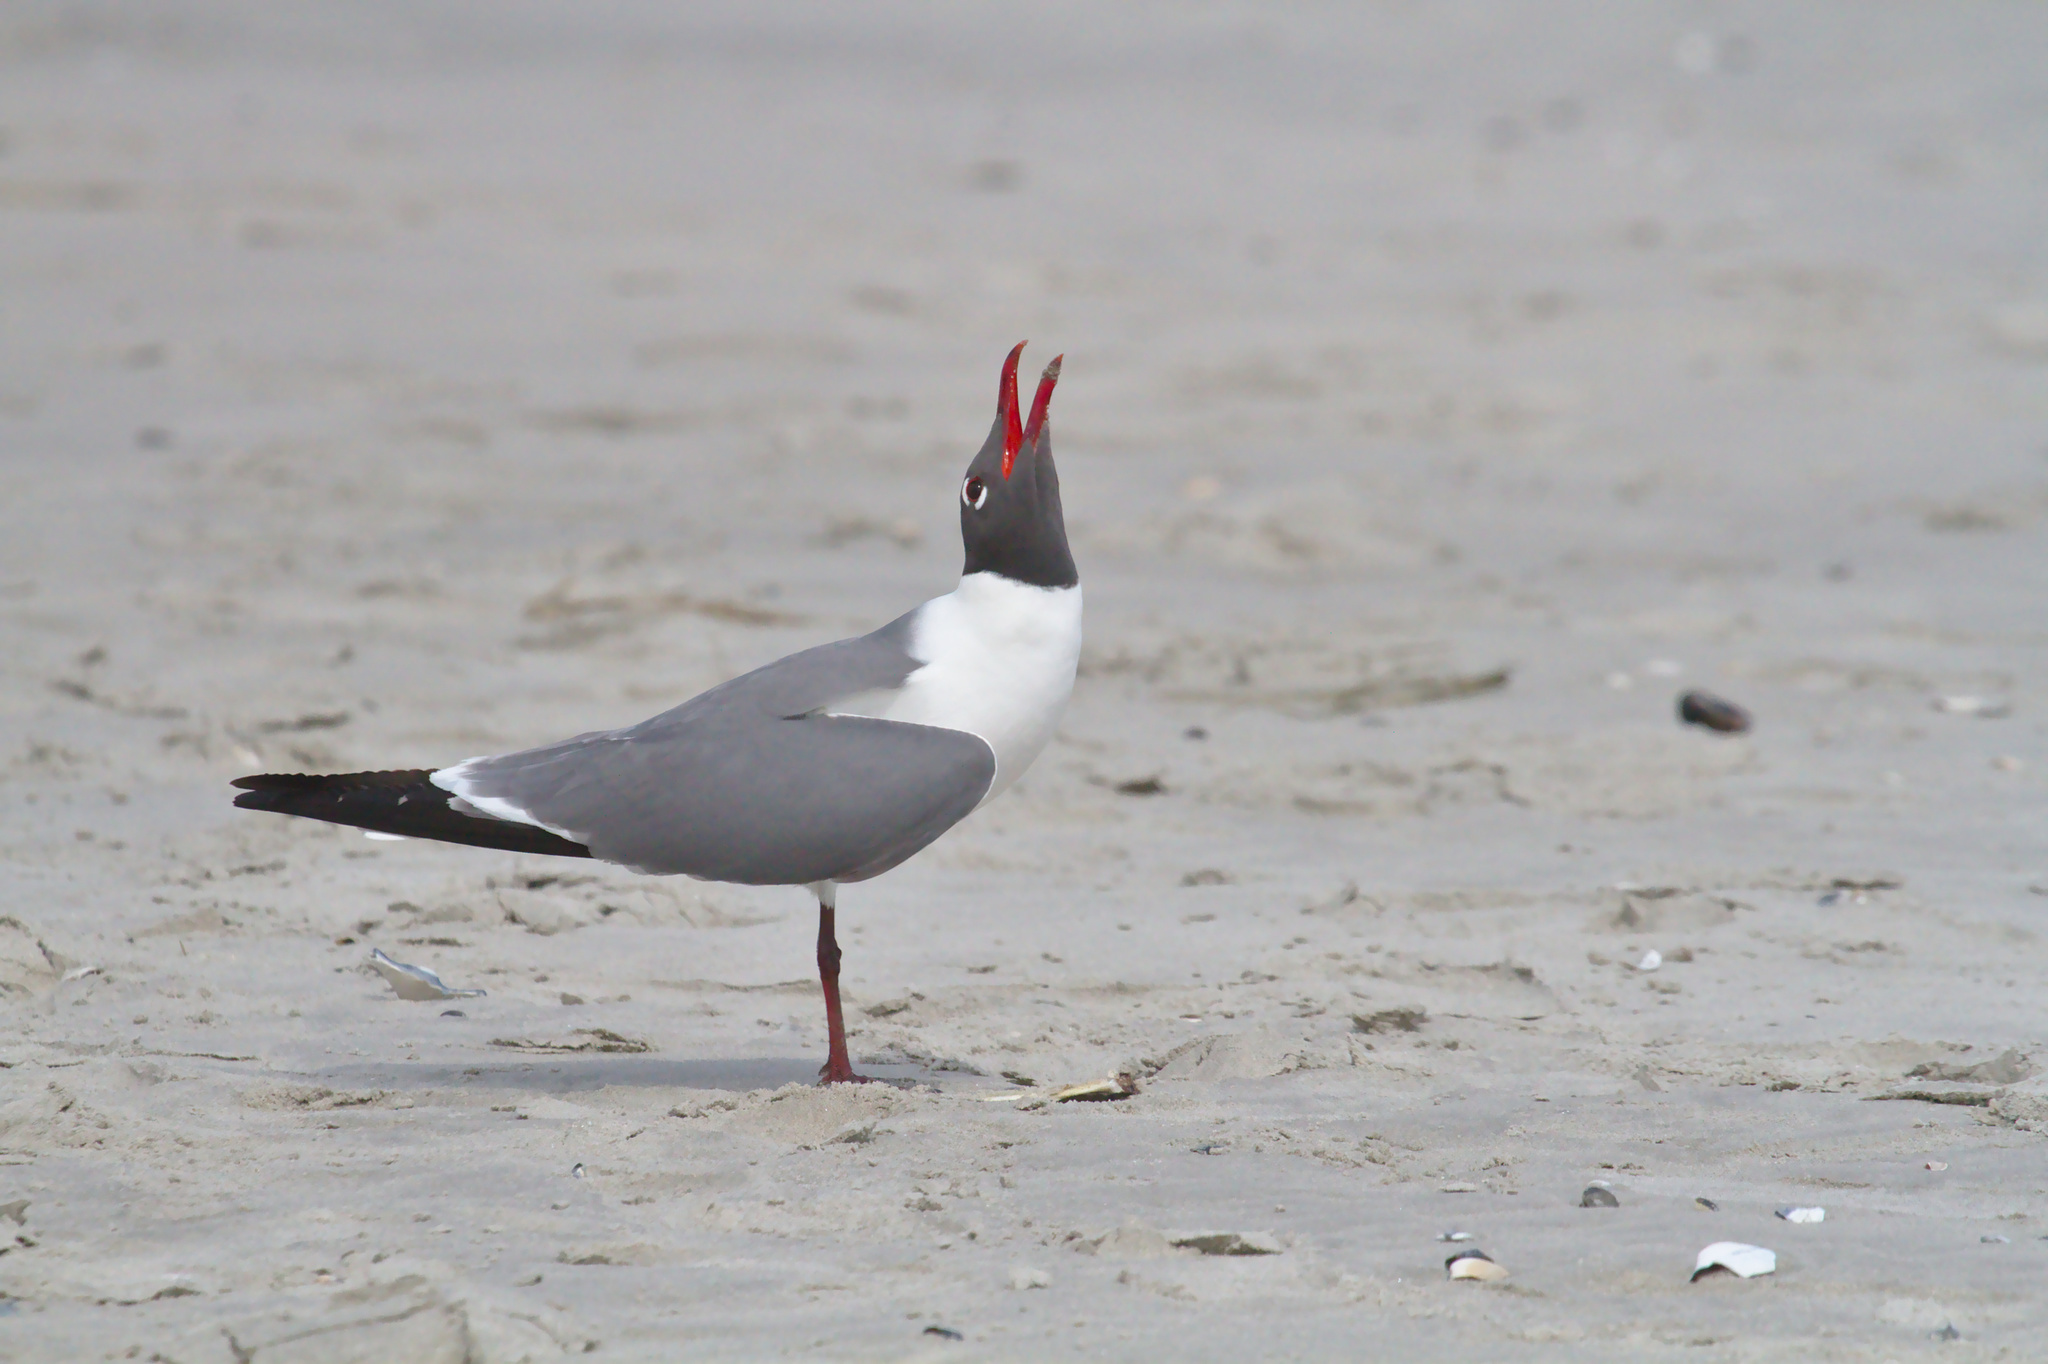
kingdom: Animalia
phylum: Chordata
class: Aves
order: Charadriiformes
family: Laridae
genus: Leucophaeus
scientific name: Leucophaeus atricilla
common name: Laughing gull
